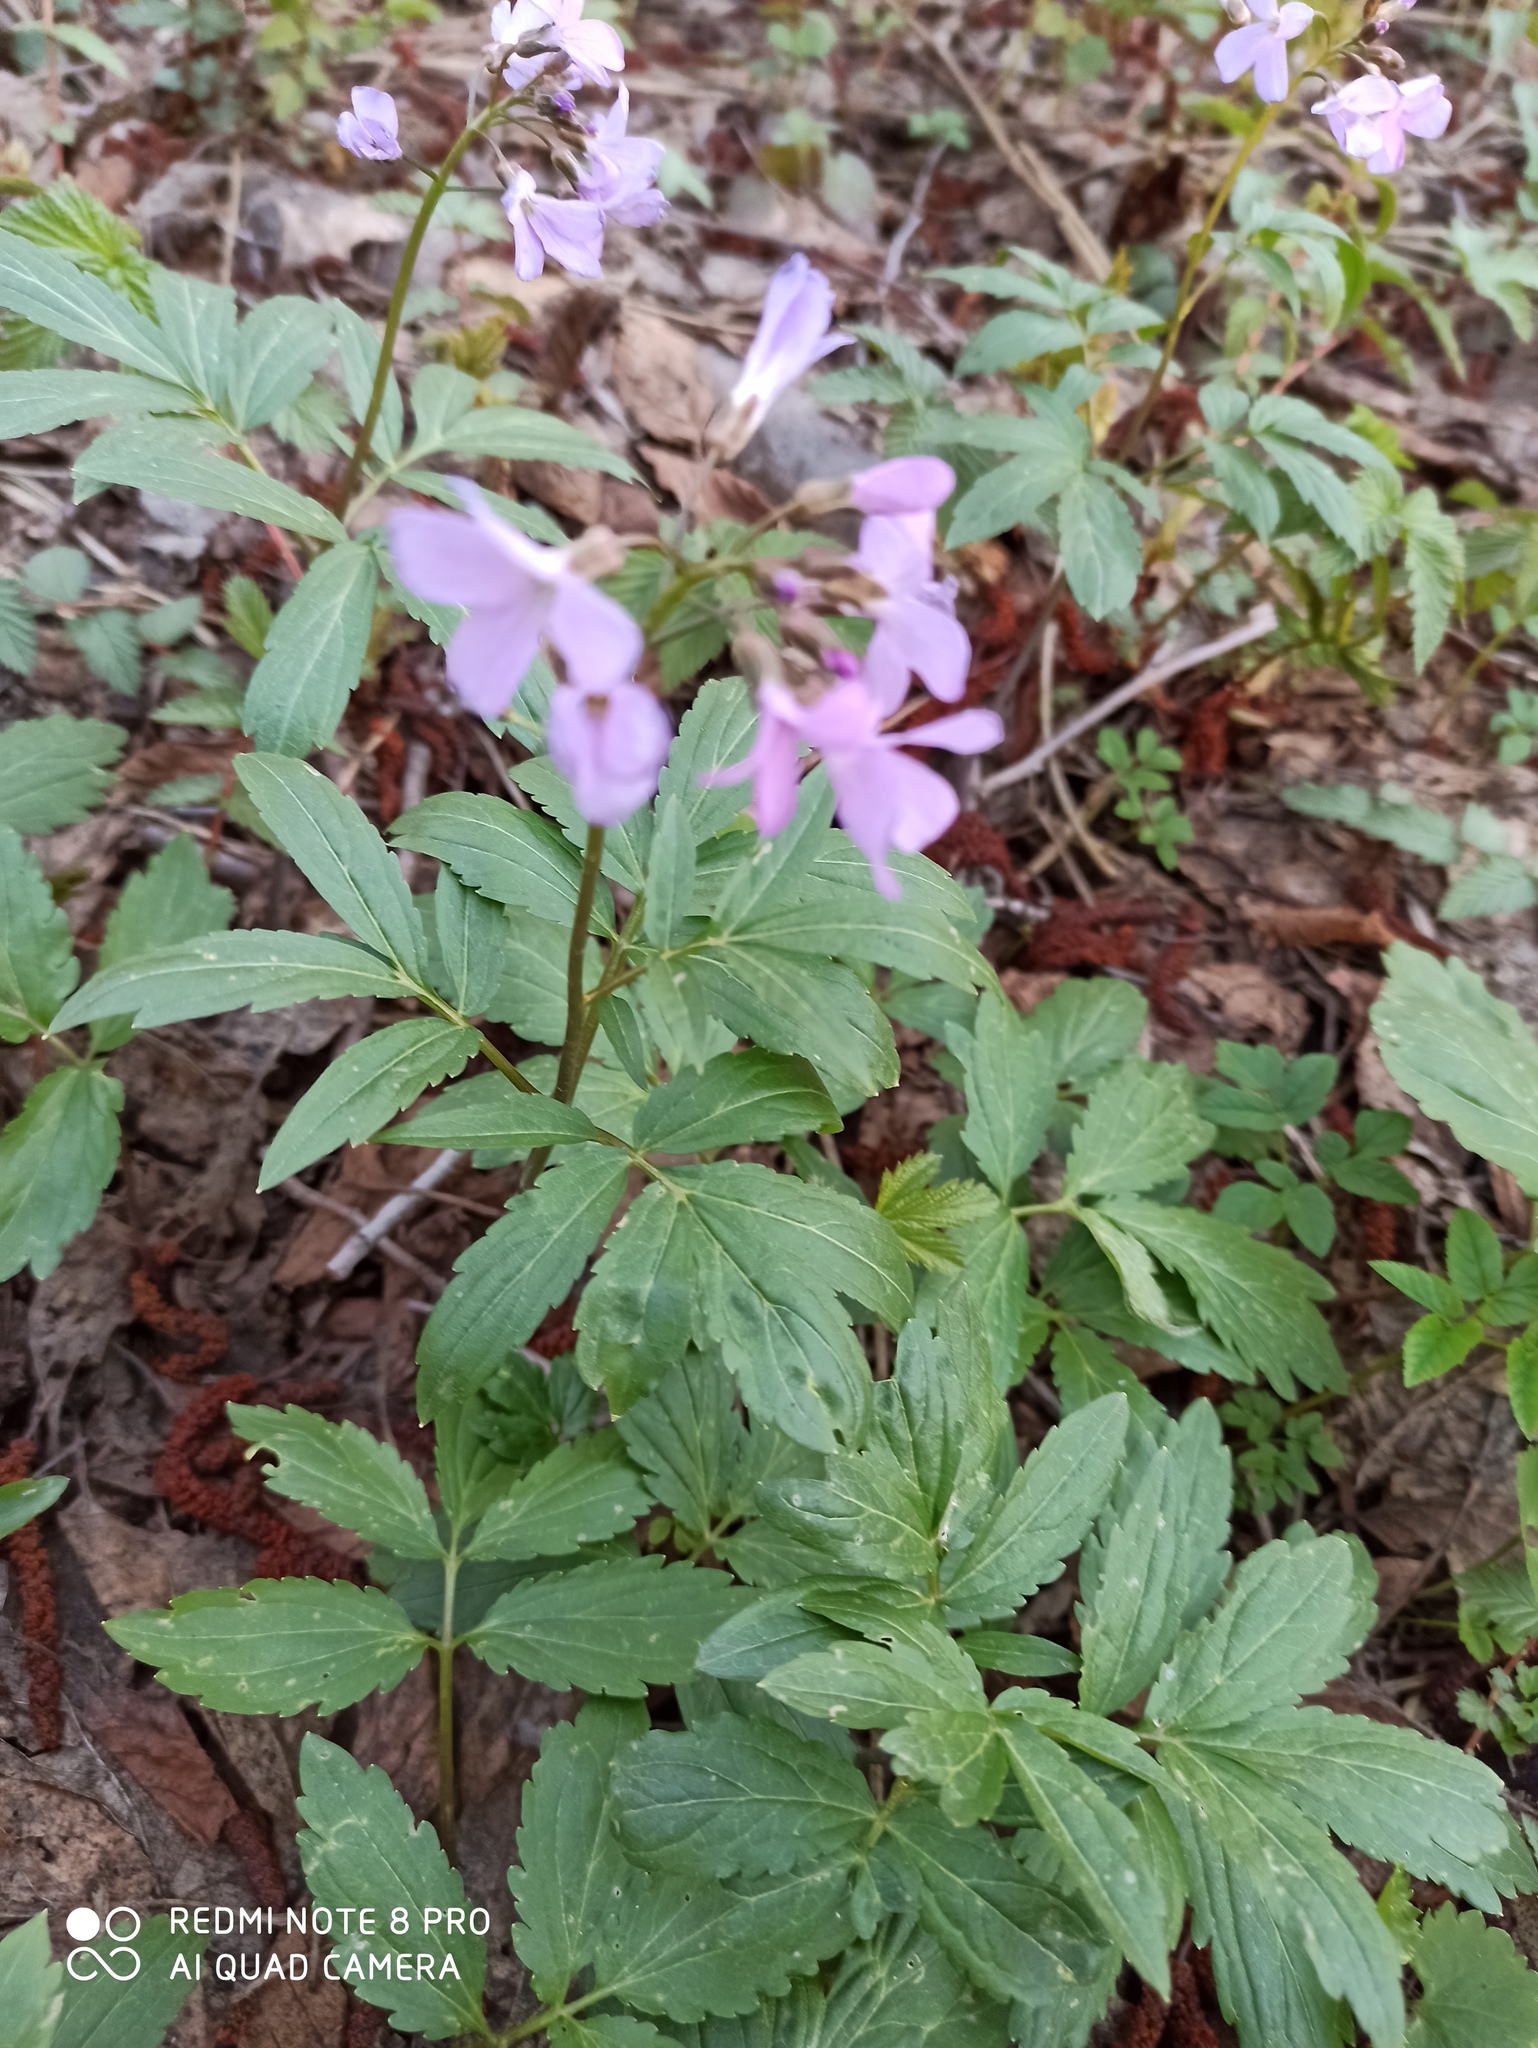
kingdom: Plantae
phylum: Tracheophyta
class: Magnoliopsida
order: Brassicales
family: Brassicaceae
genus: Cardamine
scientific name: Cardamine quinquefolia
